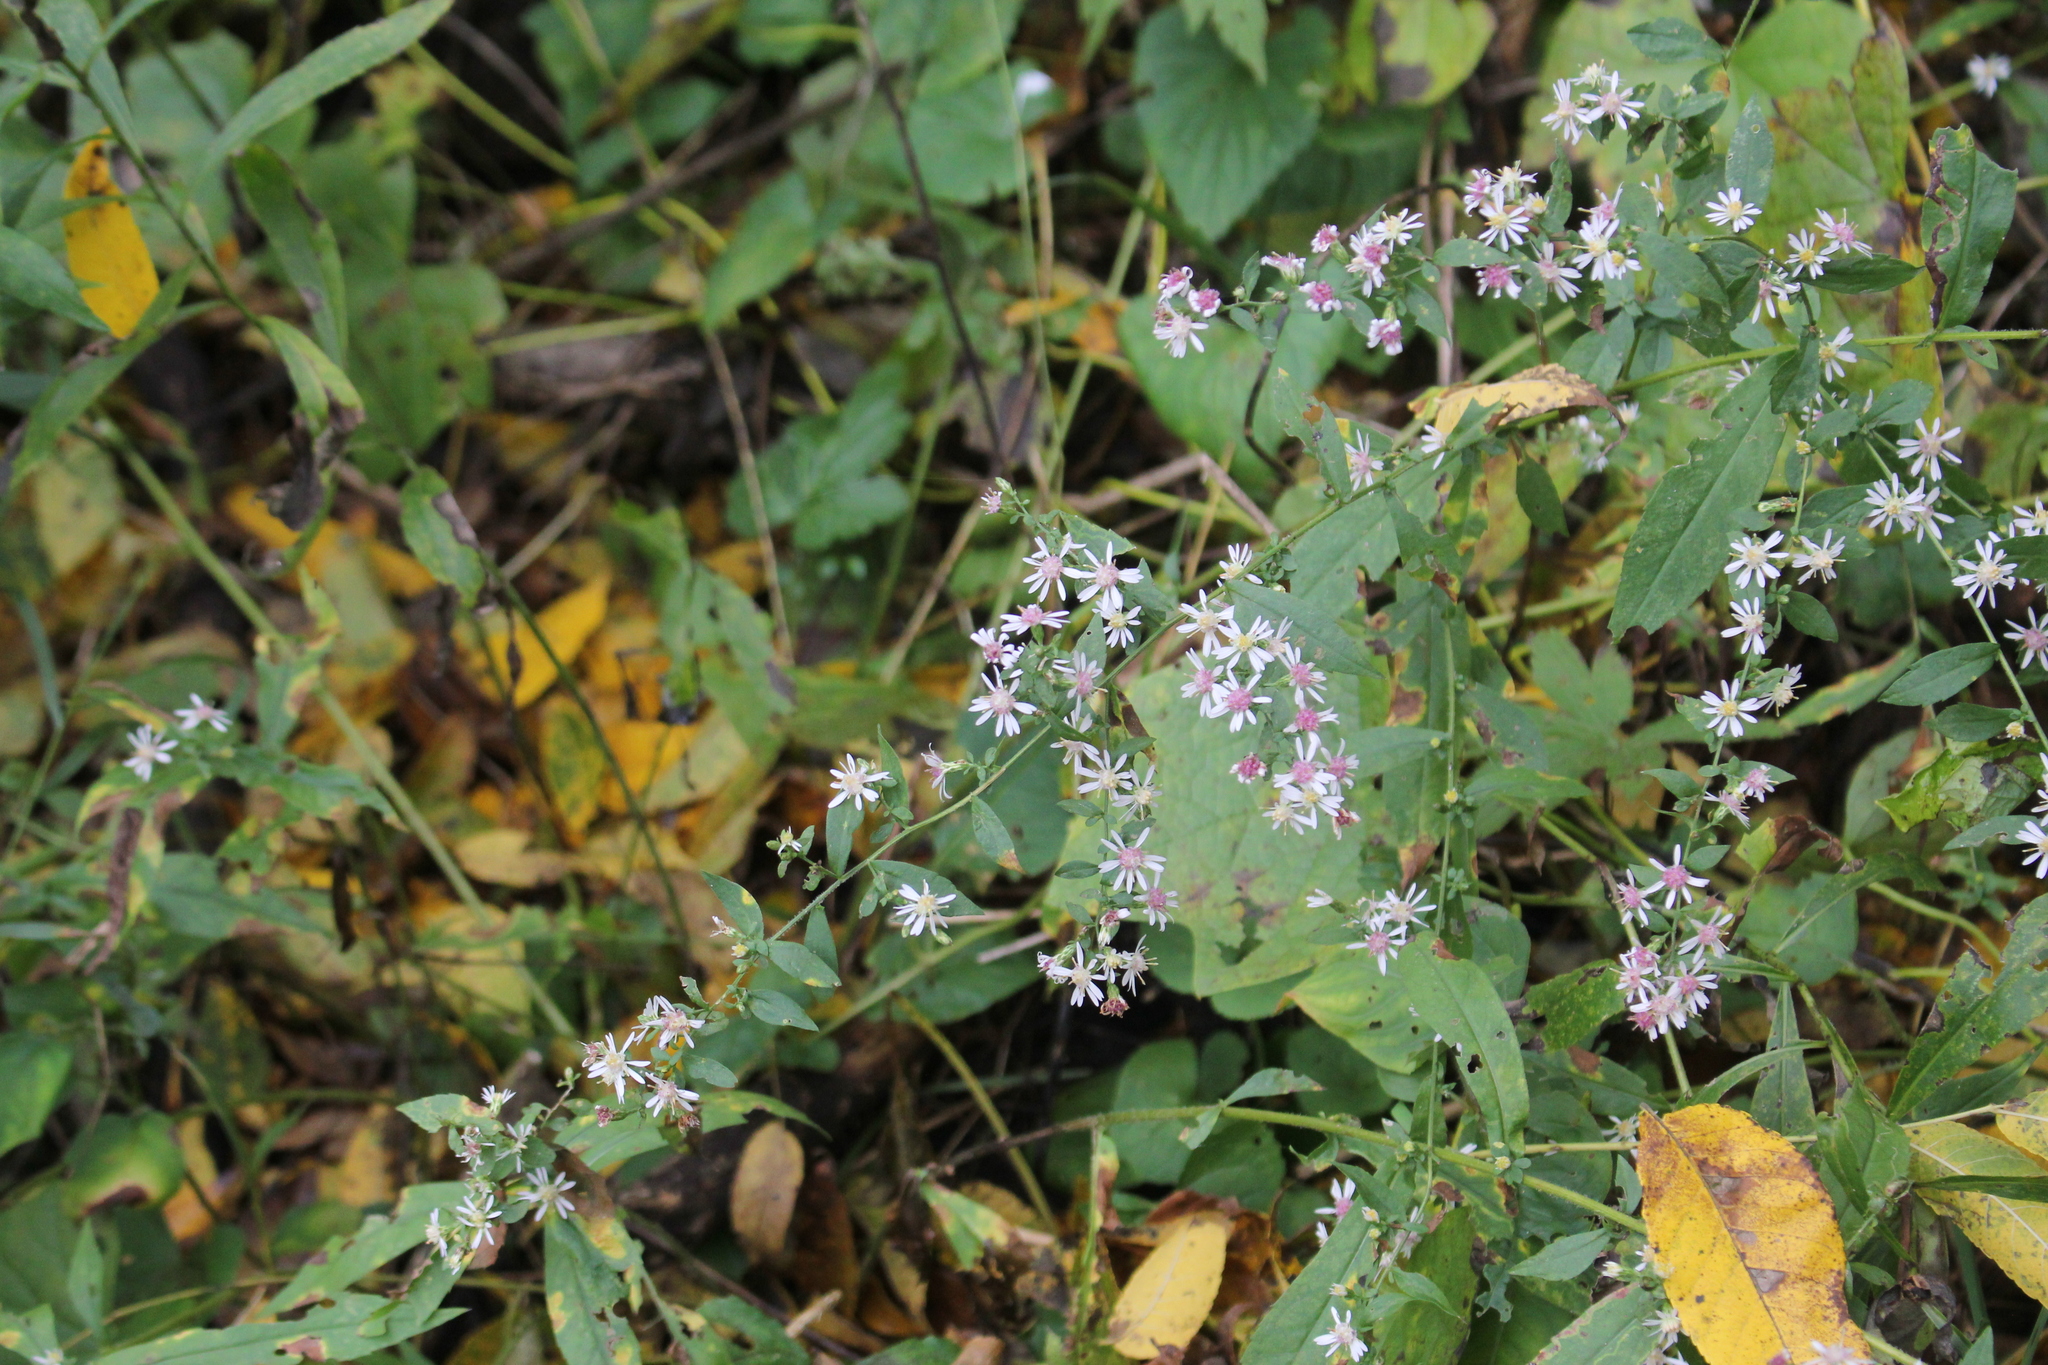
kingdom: Plantae
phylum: Tracheophyta
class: Magnoliopsida
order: Asterales
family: Asteraceae
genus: Symphyotrichum
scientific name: Symphyotrichum lateriflorum
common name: Calico aster
